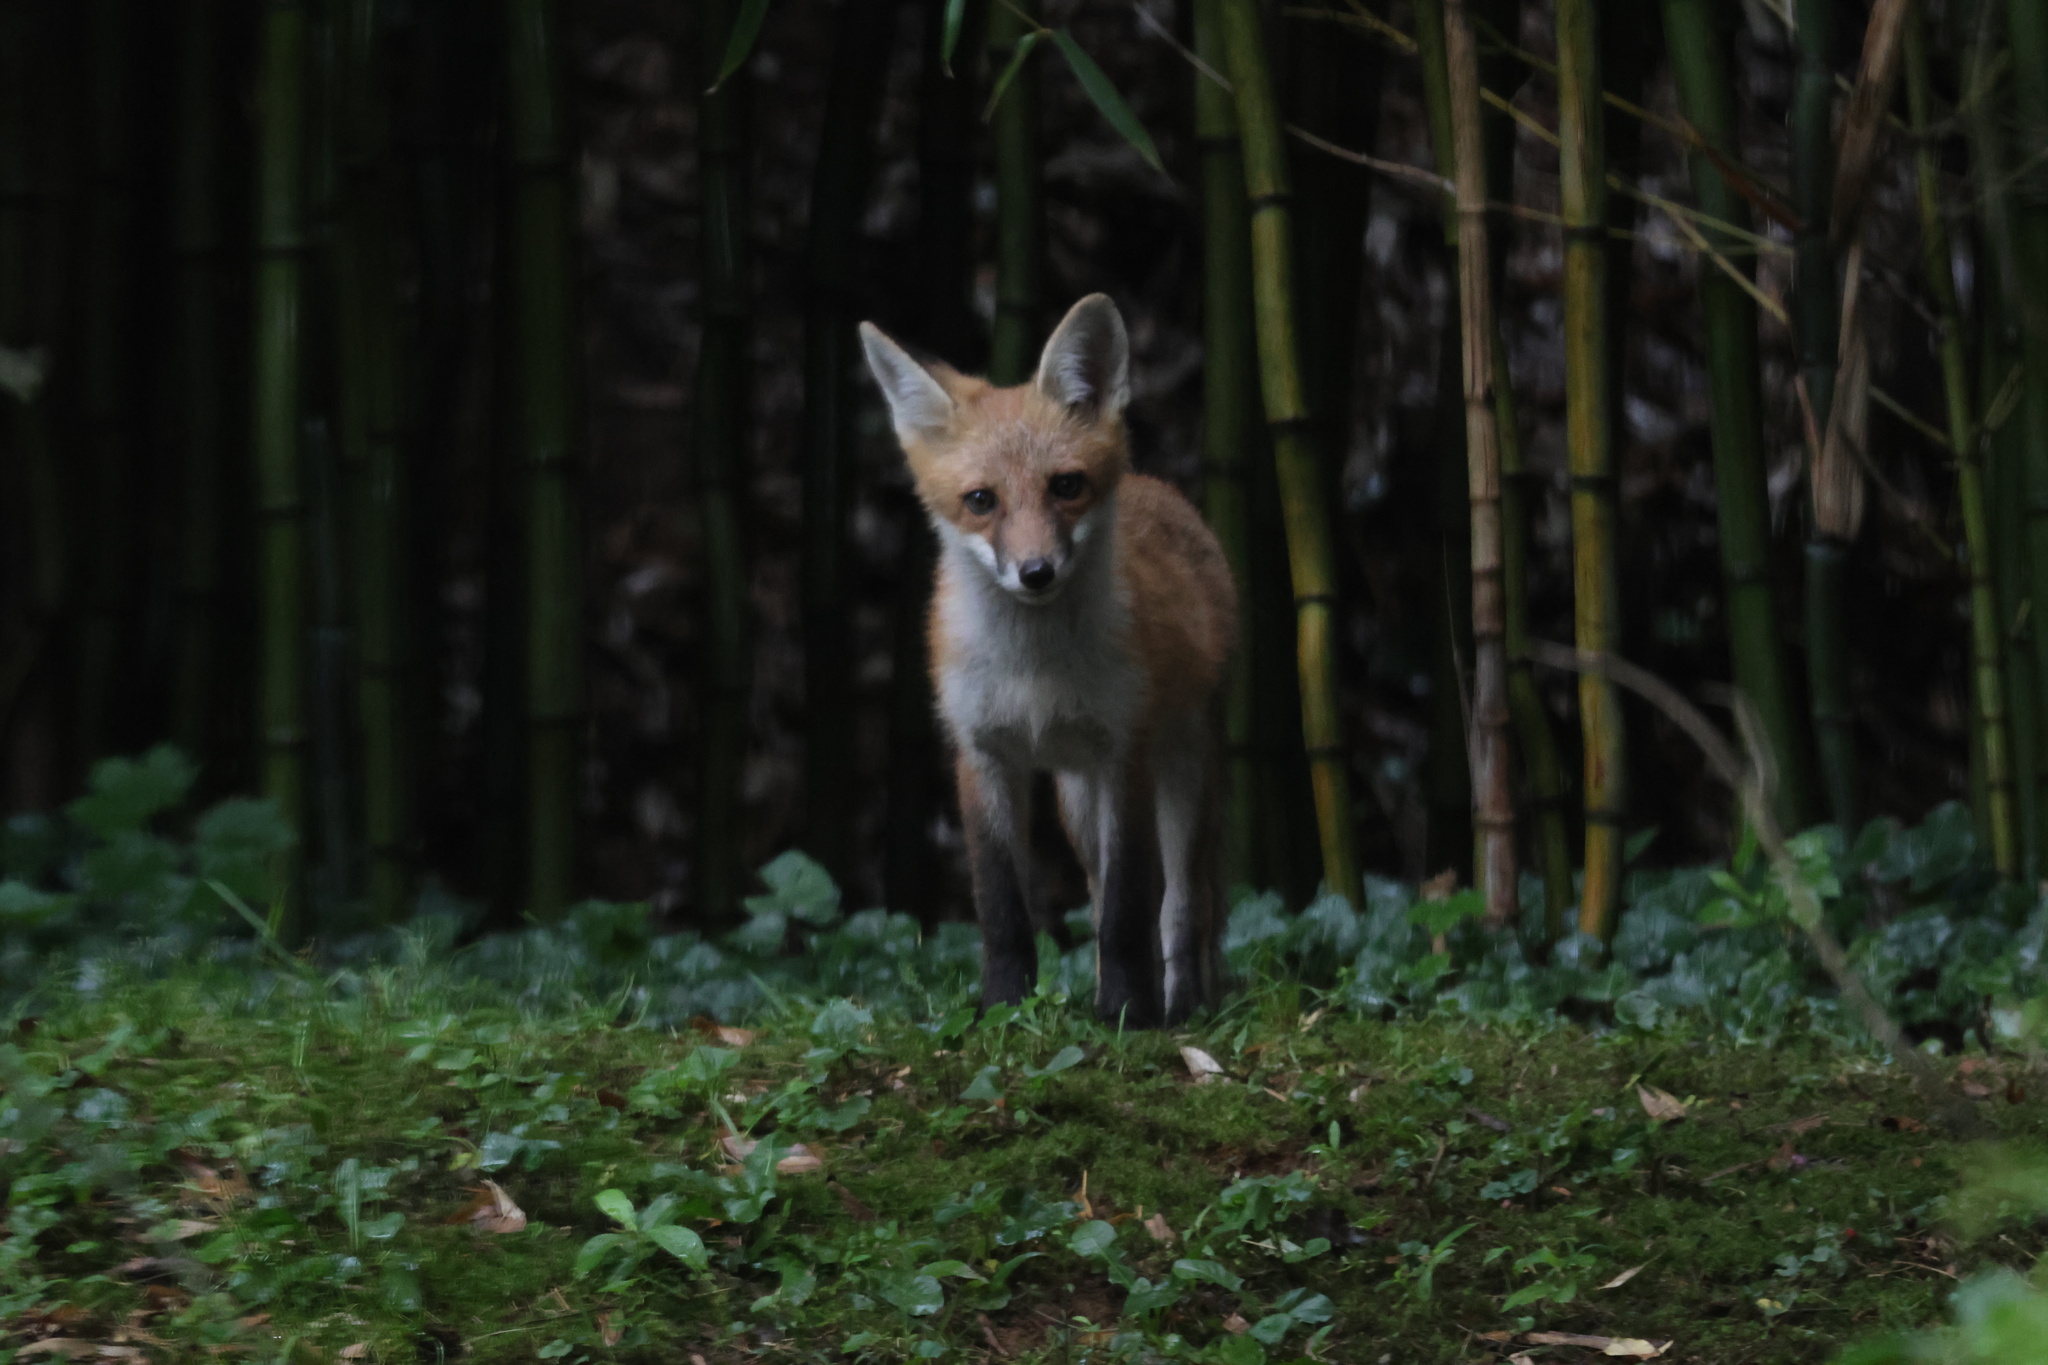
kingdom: Animalia
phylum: Chordata
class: Mammalia
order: Carnivora
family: Canidae
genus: Vulpes
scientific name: Vulpes vulpes
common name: Red fox
